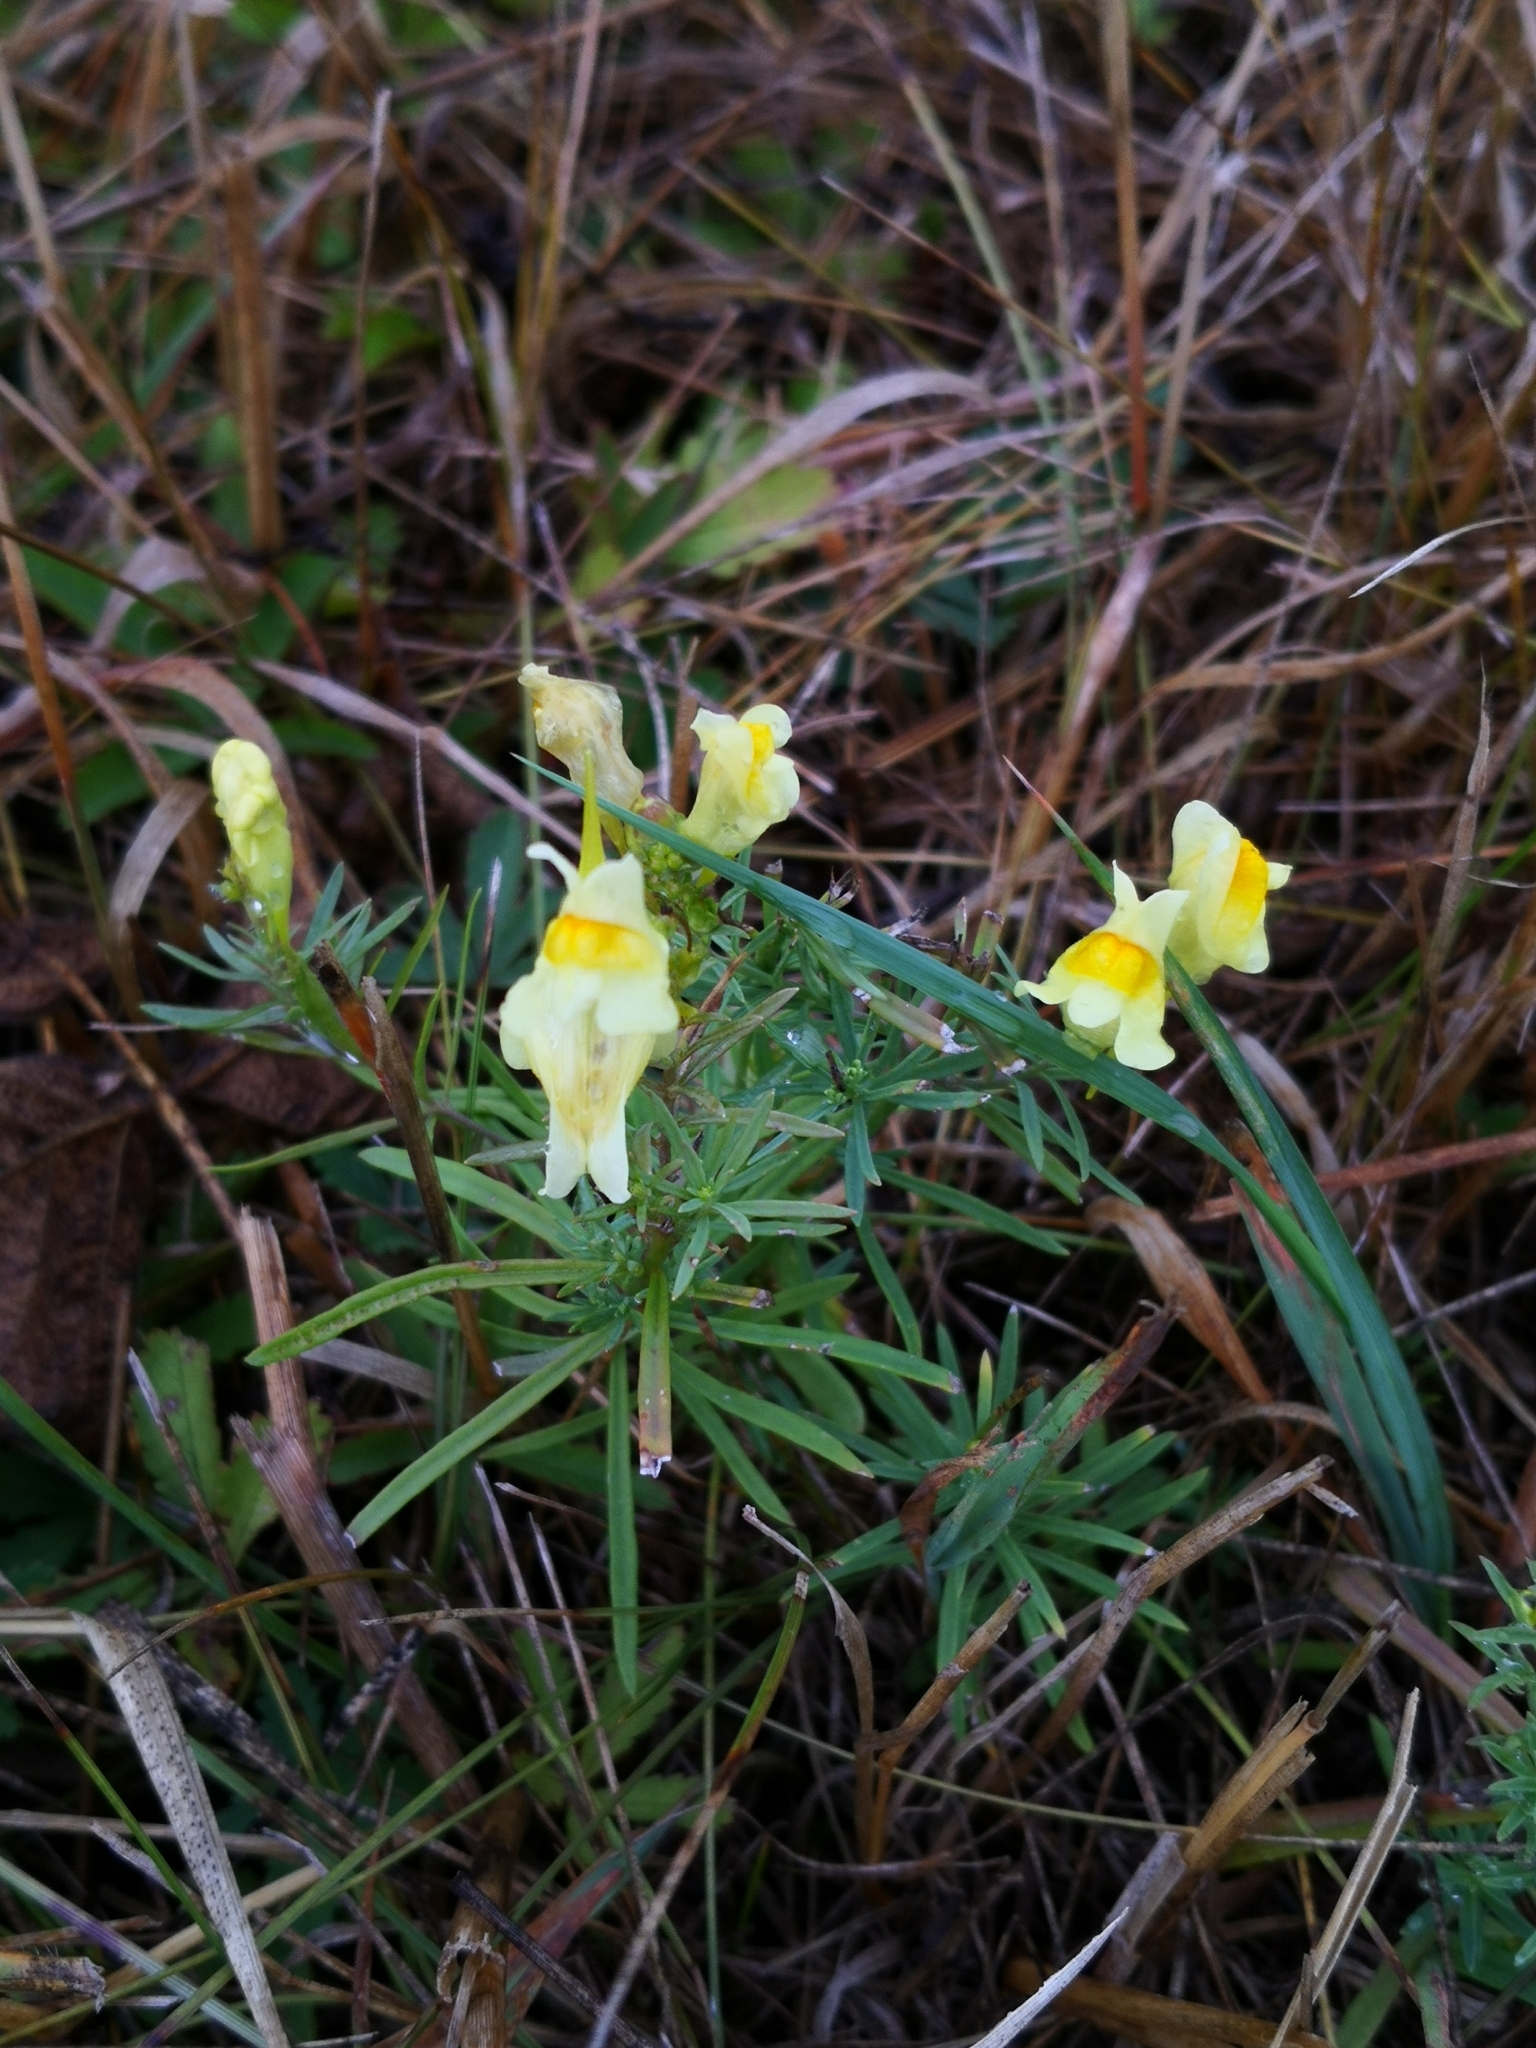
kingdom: Plantae
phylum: Tracheophyta
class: Magnoliopsida
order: Lamiales
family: Plantaginaceae
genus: Linaria
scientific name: Linaria vulgaris
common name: Butter and eggs
